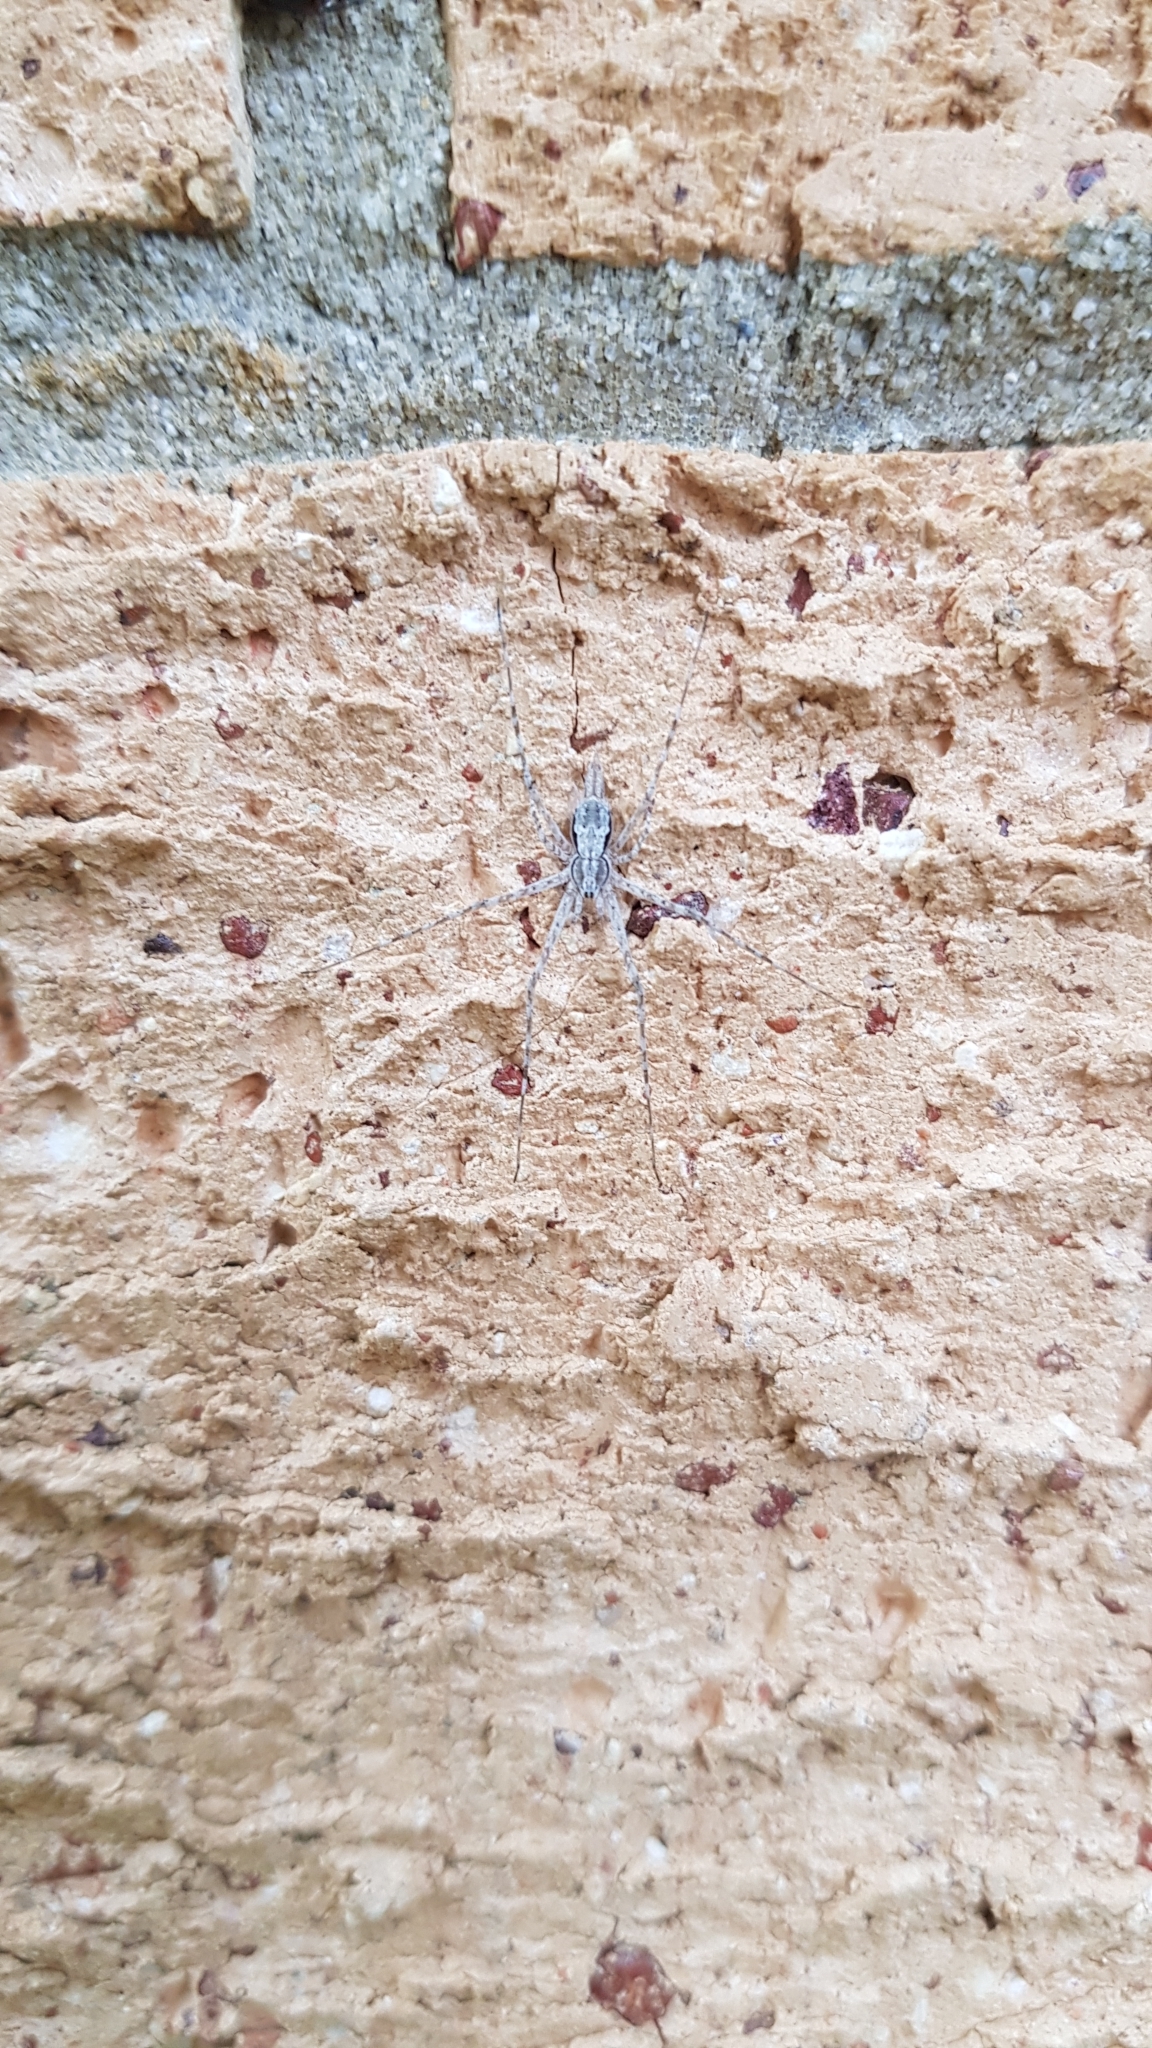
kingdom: Animalia
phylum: Arthropoda
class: Arachnida
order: Araneae
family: Hersiliidae
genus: Tamopsis
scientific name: Tamopsis fickerti
